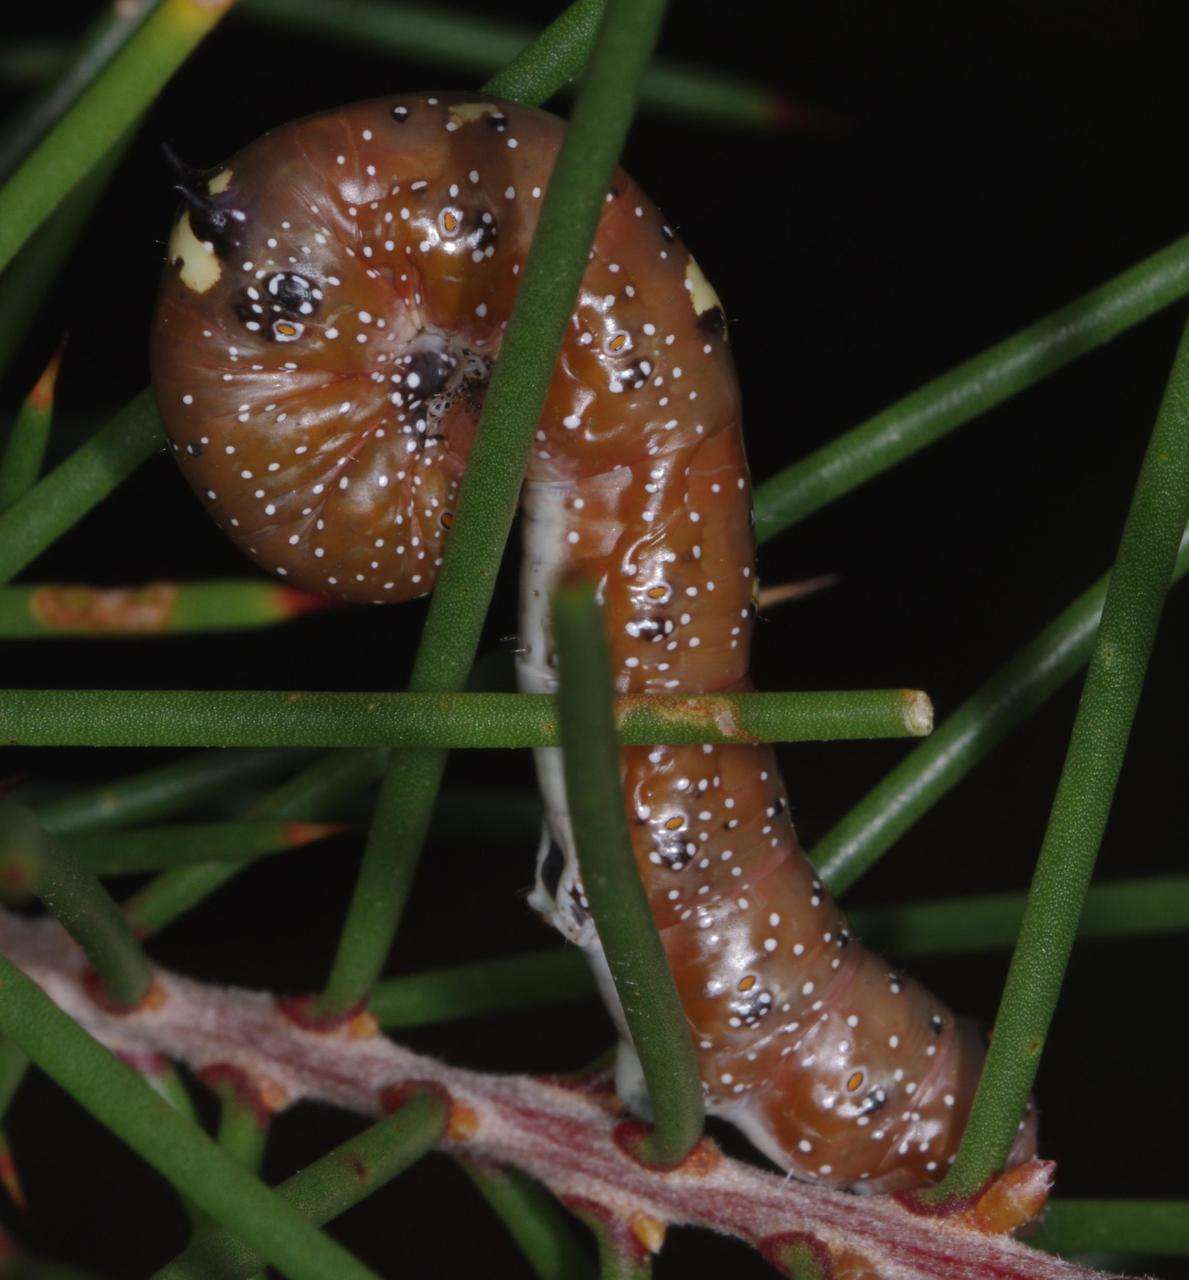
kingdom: Animalia
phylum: Arthropoda
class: Insecta
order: Lepidoptera
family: Geometridae
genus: Oenochroma
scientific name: Oenochroma vinaria
